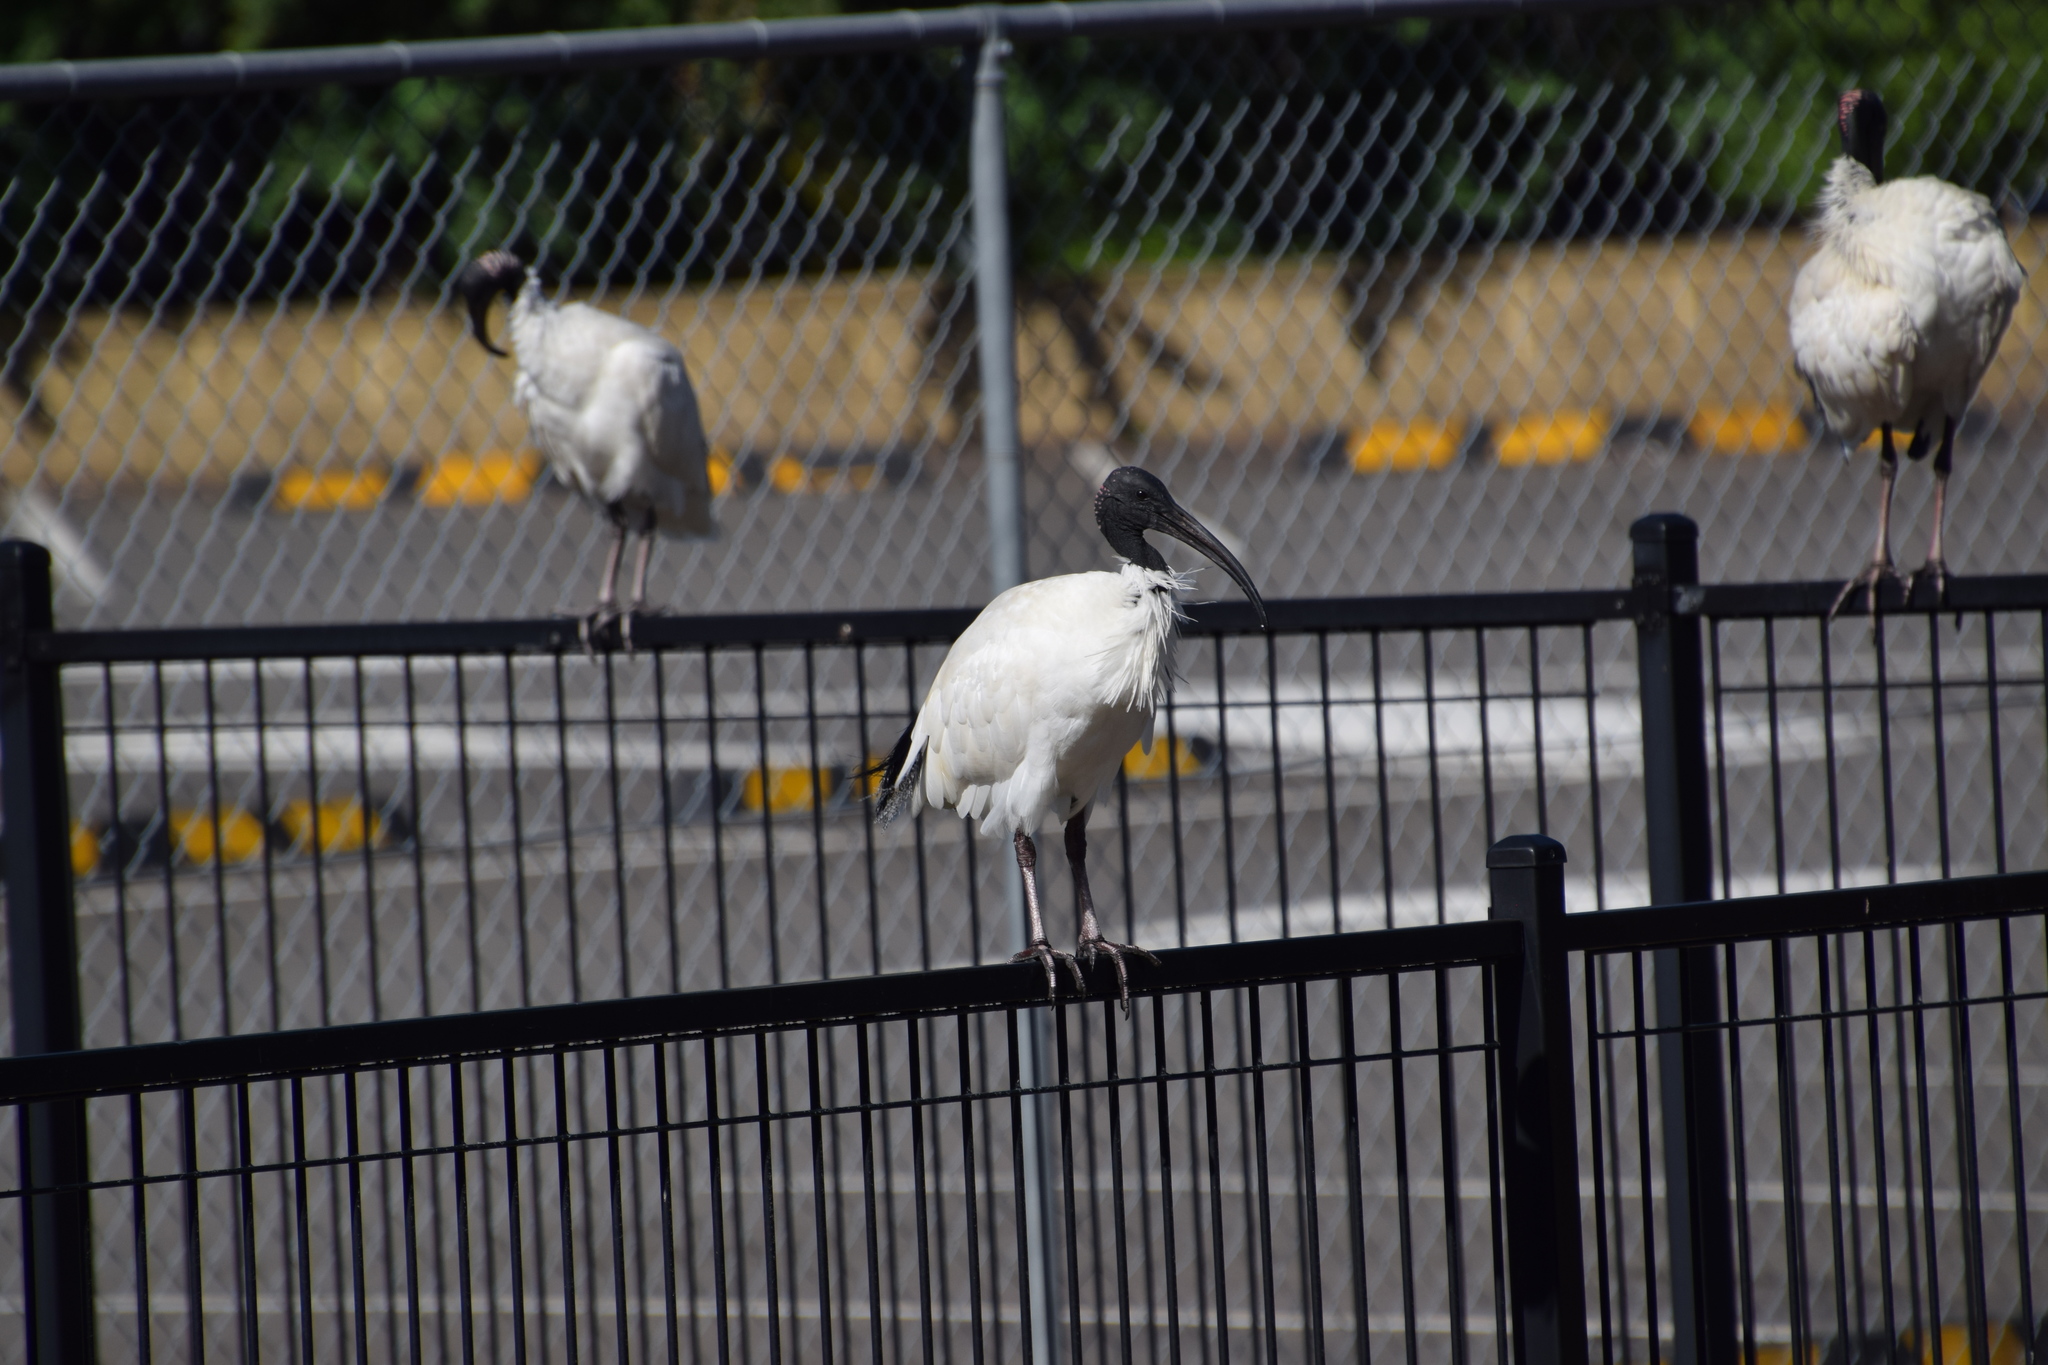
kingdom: Animalia
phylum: Chordata
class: Aves
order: Pelecaniformes
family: Threskiornithidae
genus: Threskiornis
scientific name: Threskiornis molucca
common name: Australian white ibis
